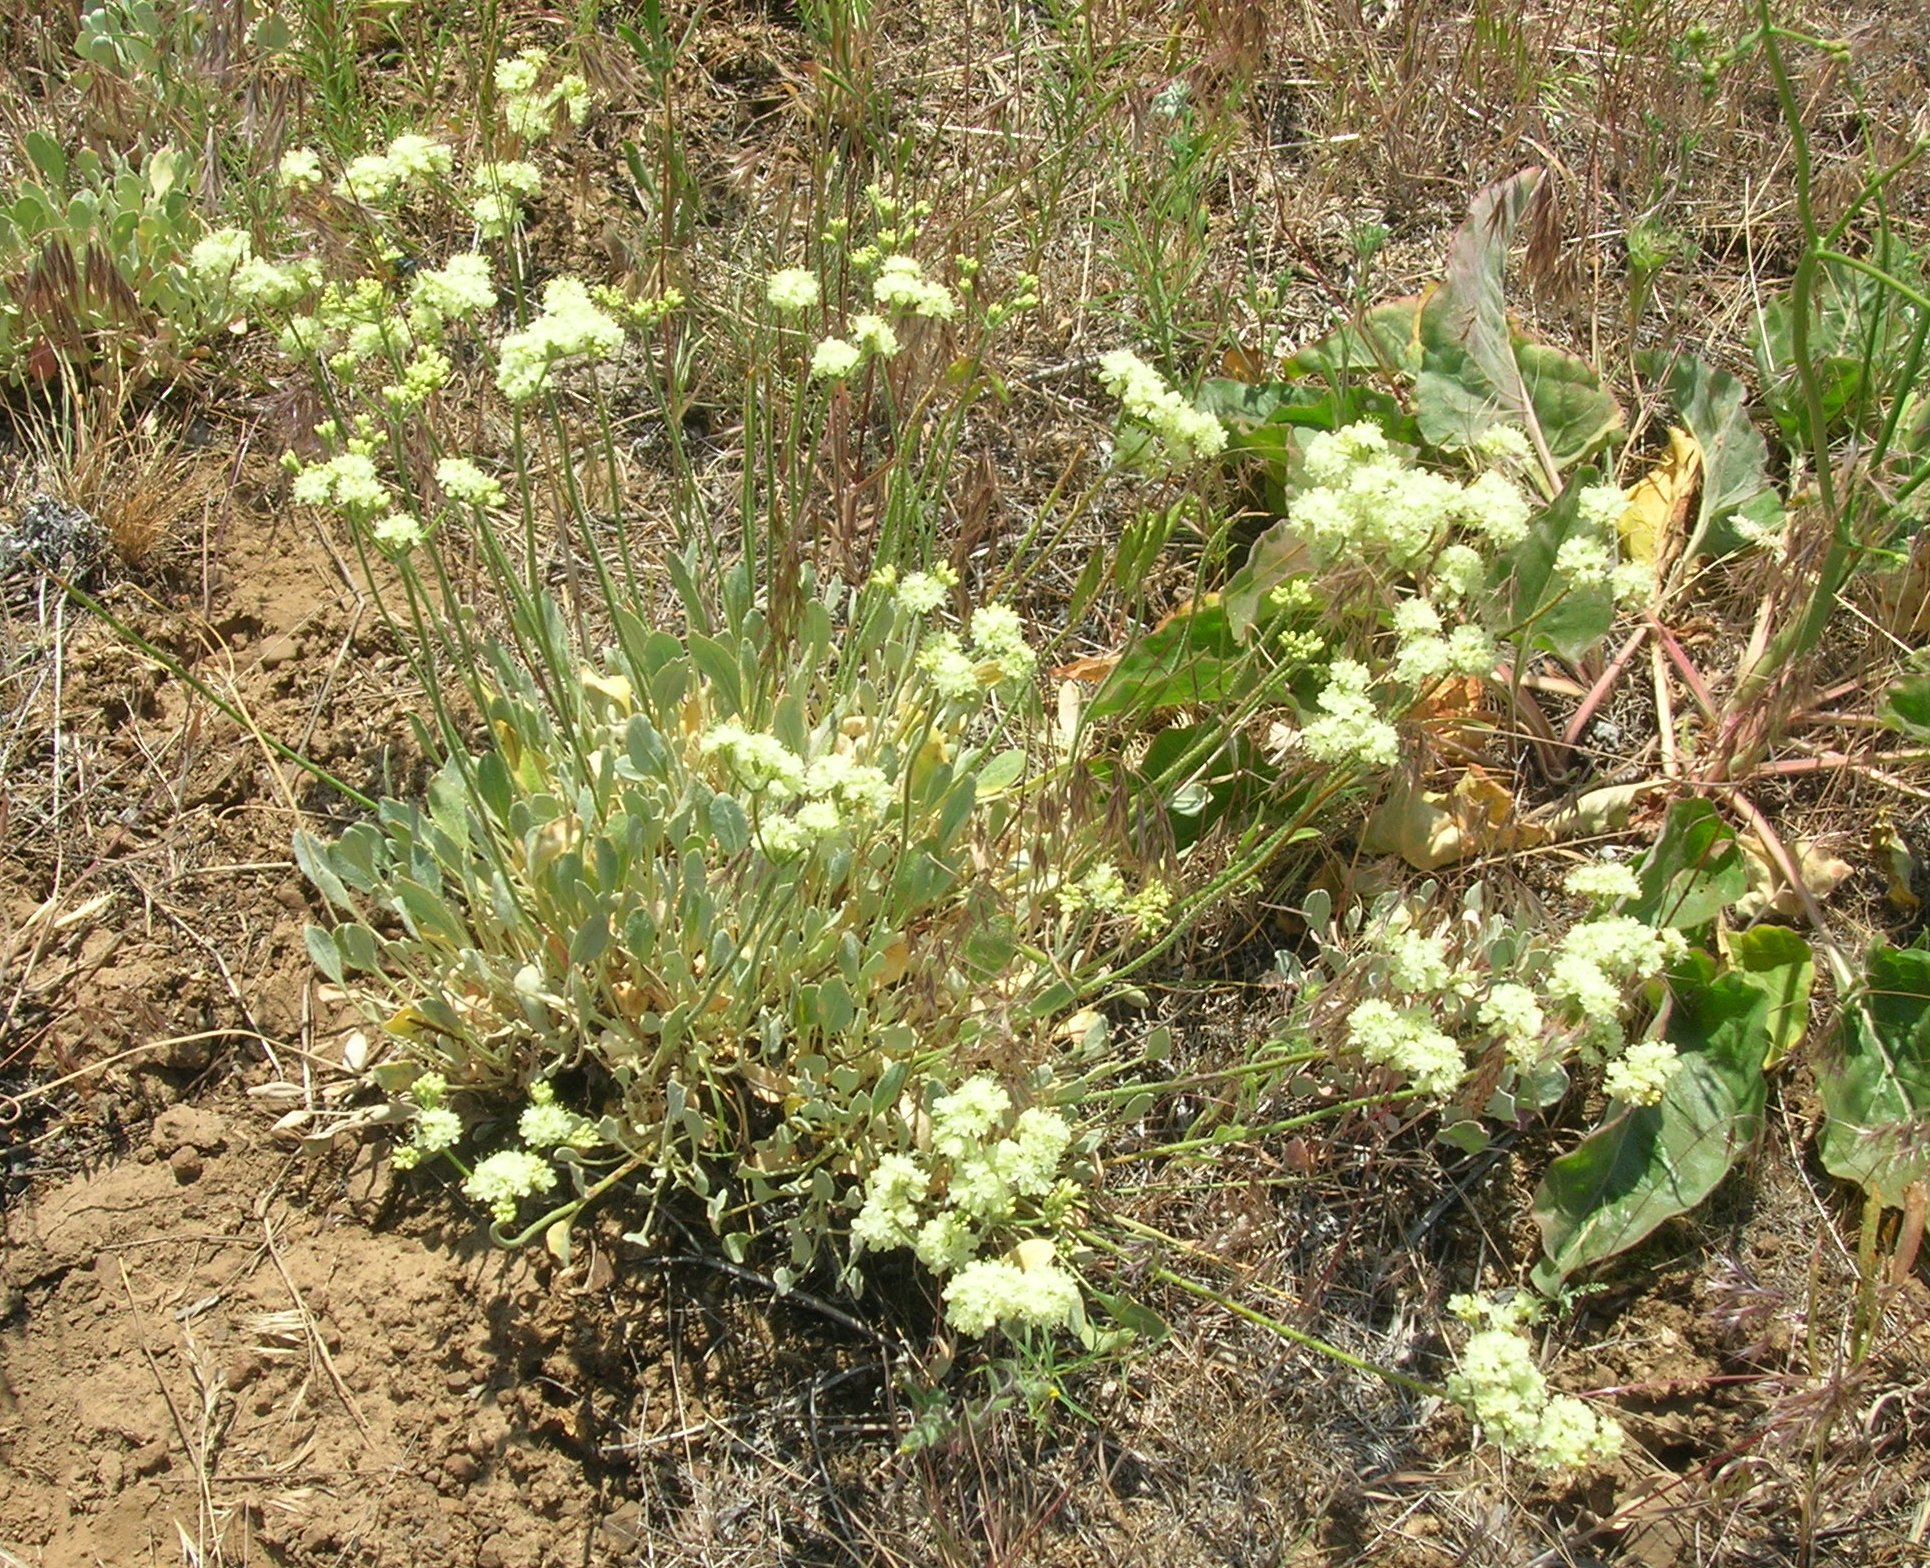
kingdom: Plantae
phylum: Tracheophyta
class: Magnoliopsida
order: Caryophyllales
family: Polygonaceae
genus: Eriogonum
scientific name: Eriogonum strictum
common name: Blue mountain buckwheat
